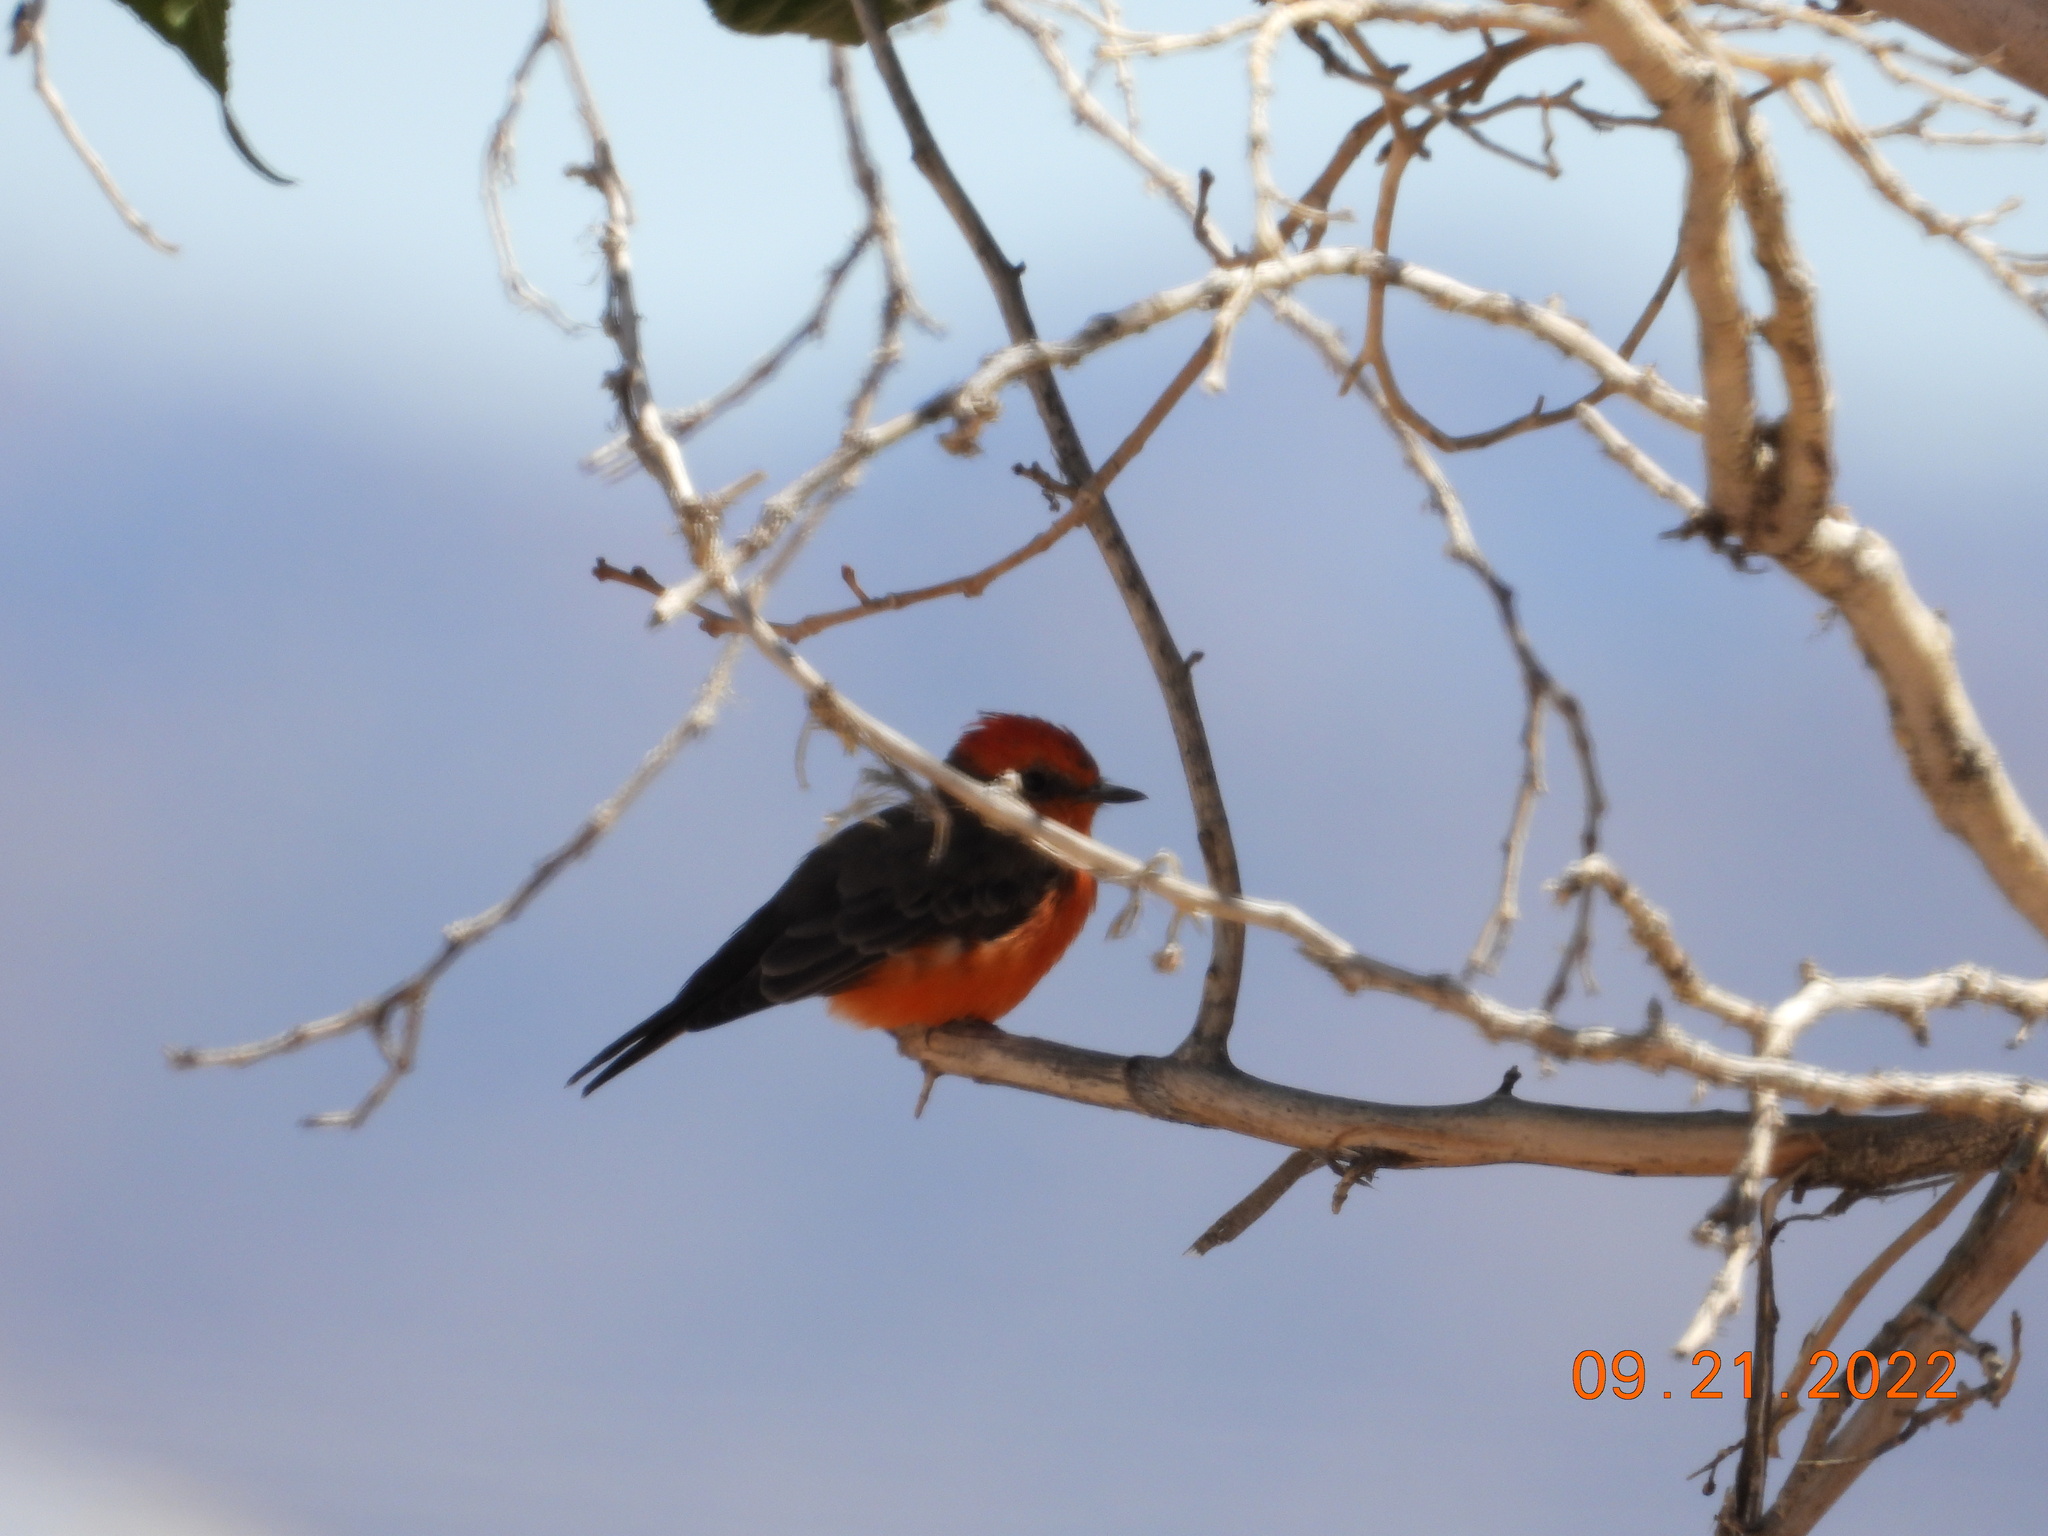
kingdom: Animalia
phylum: Chordata
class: Aves
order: Passeriformes
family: Tyrannidae
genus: Pyrocephalus
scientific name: Pyrocephalus rubinus
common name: Vermilion flycatcher
